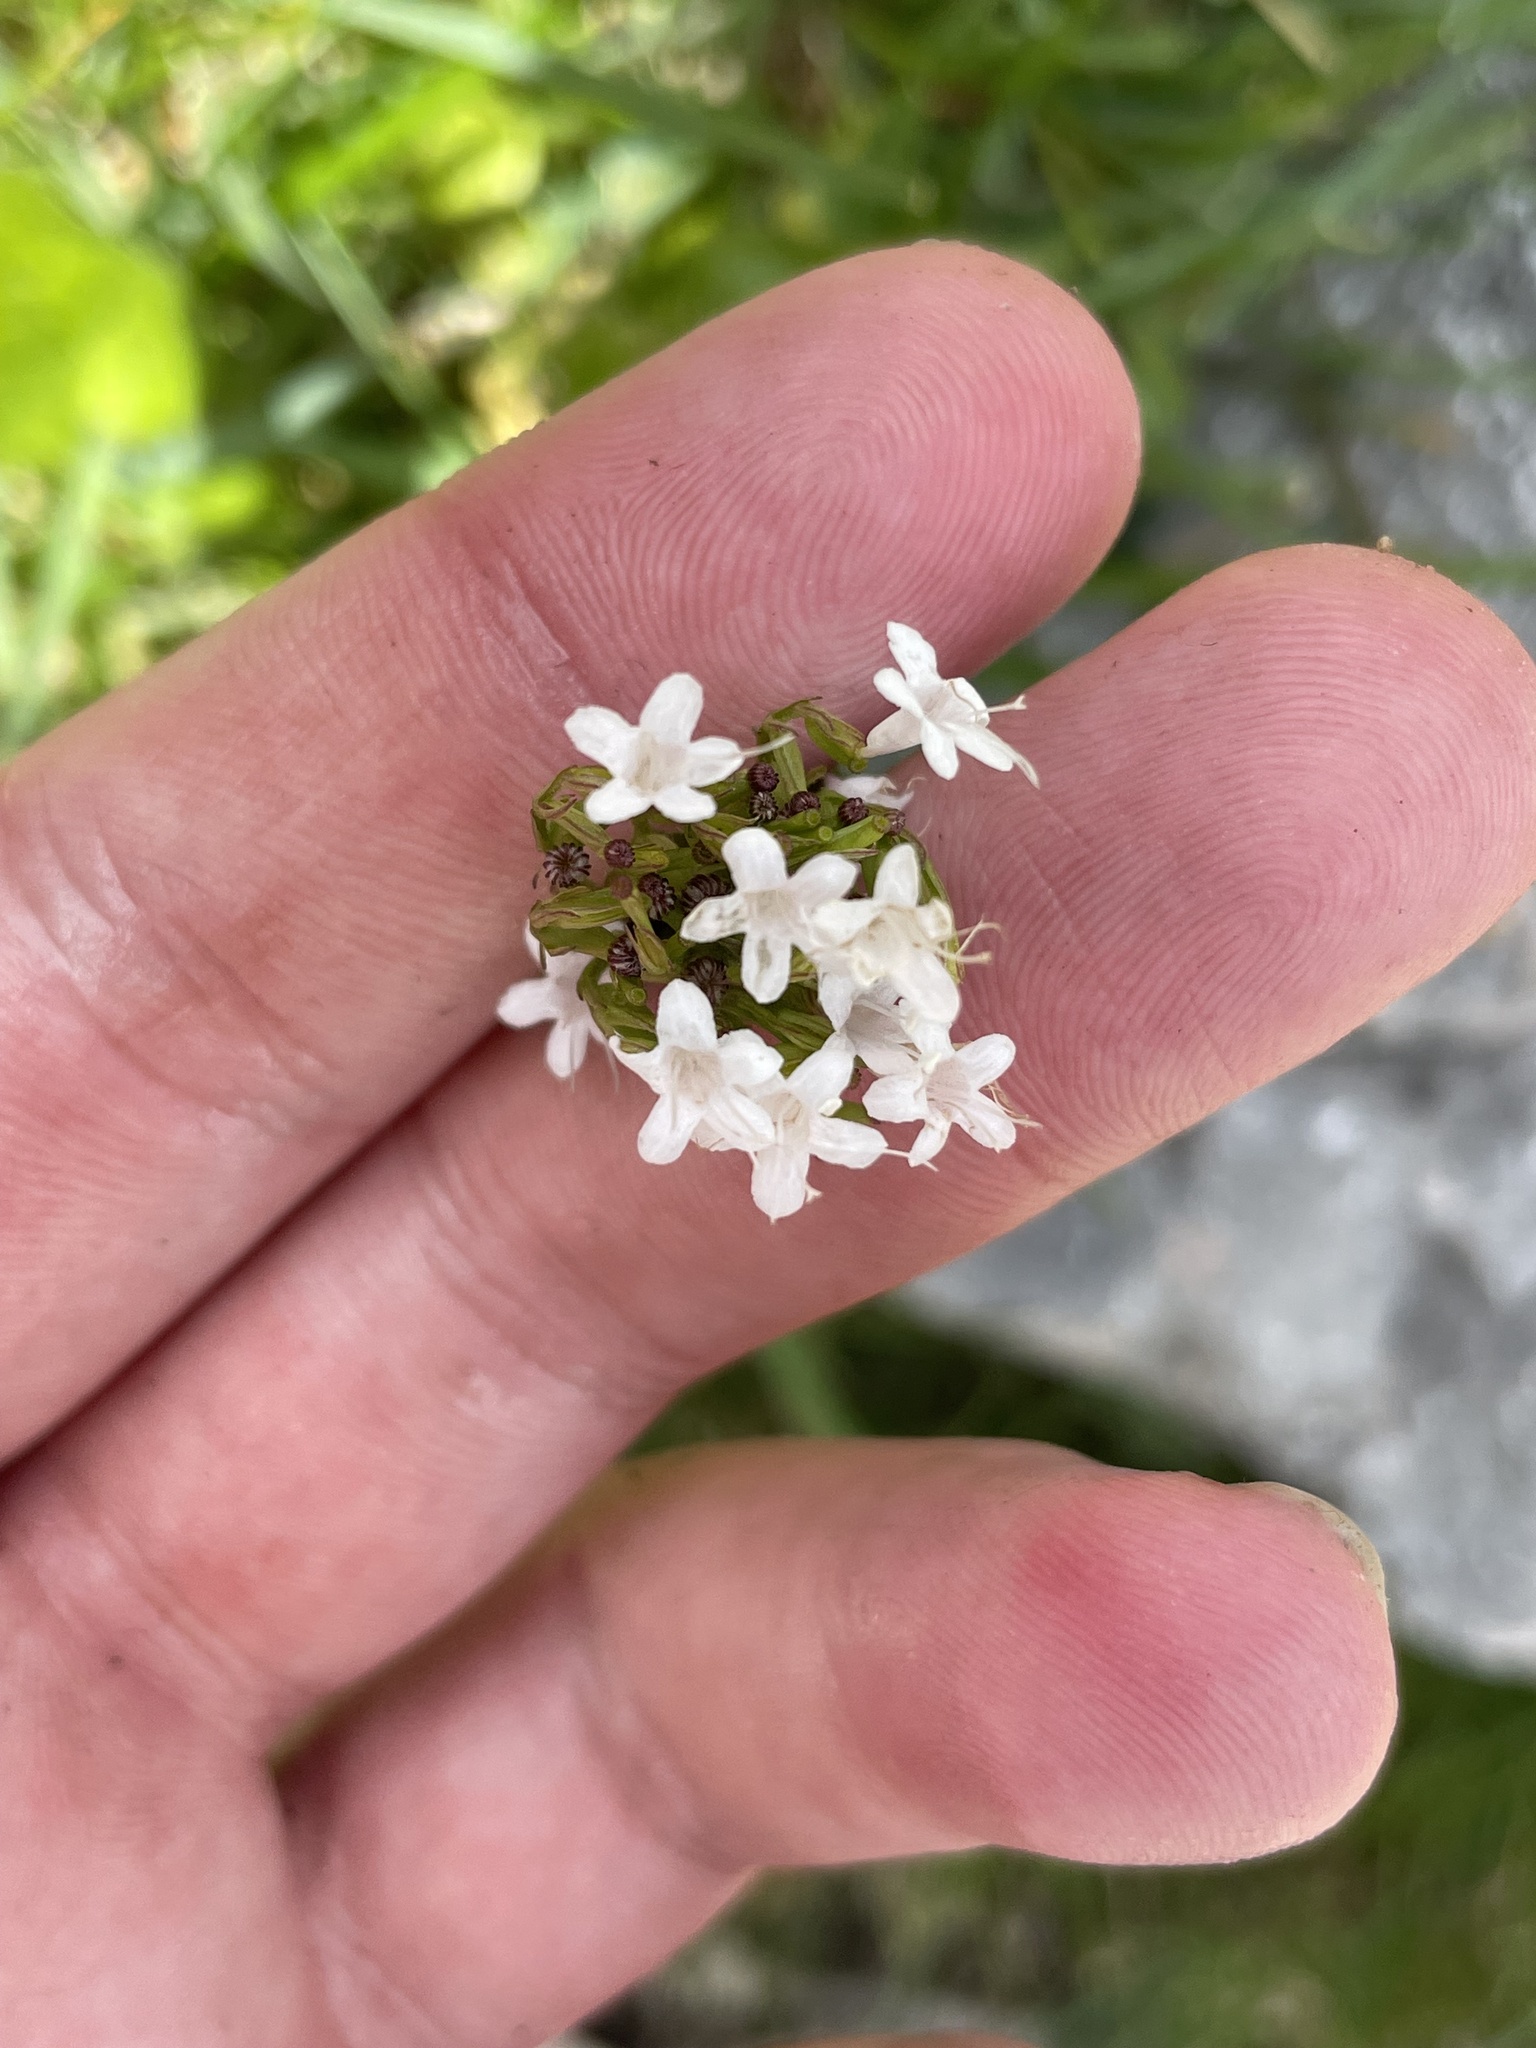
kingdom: Plantae
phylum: Tracheophyta
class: Magnoliopsida
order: Dipsacales
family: Caprifoliaceae
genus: Valeriana
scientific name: Valeriana montana
